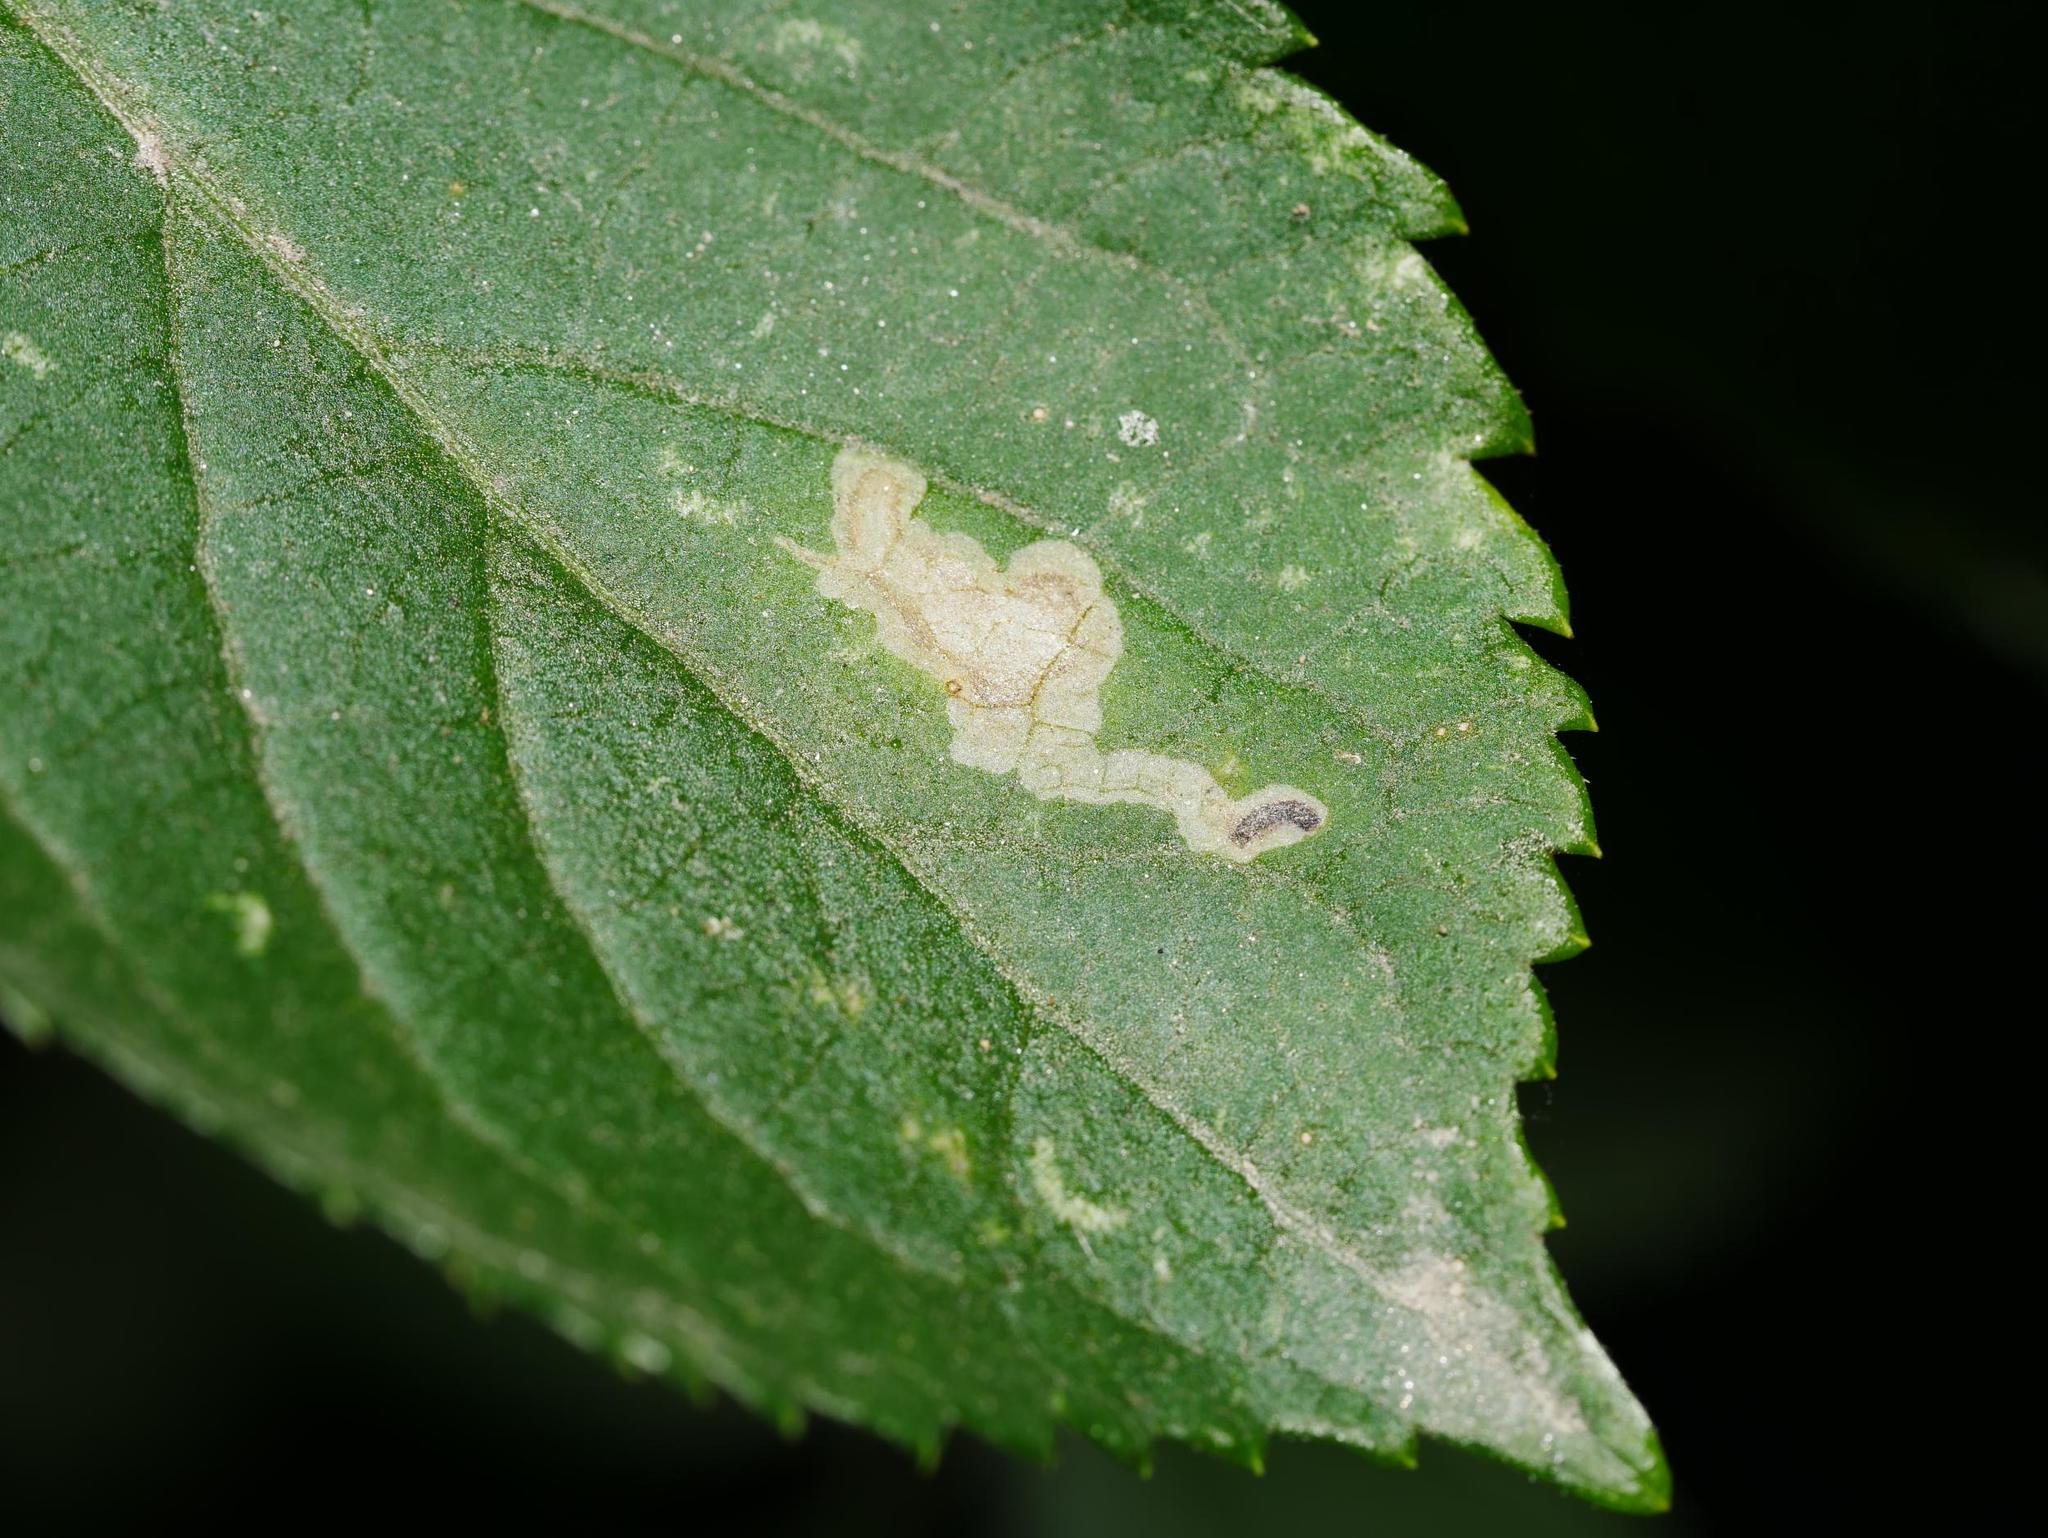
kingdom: Animalia
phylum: Arthropoda
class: Insecta
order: Diptera
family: Agromyzidae
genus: Liriomyza
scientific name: Liriomyza amoena
